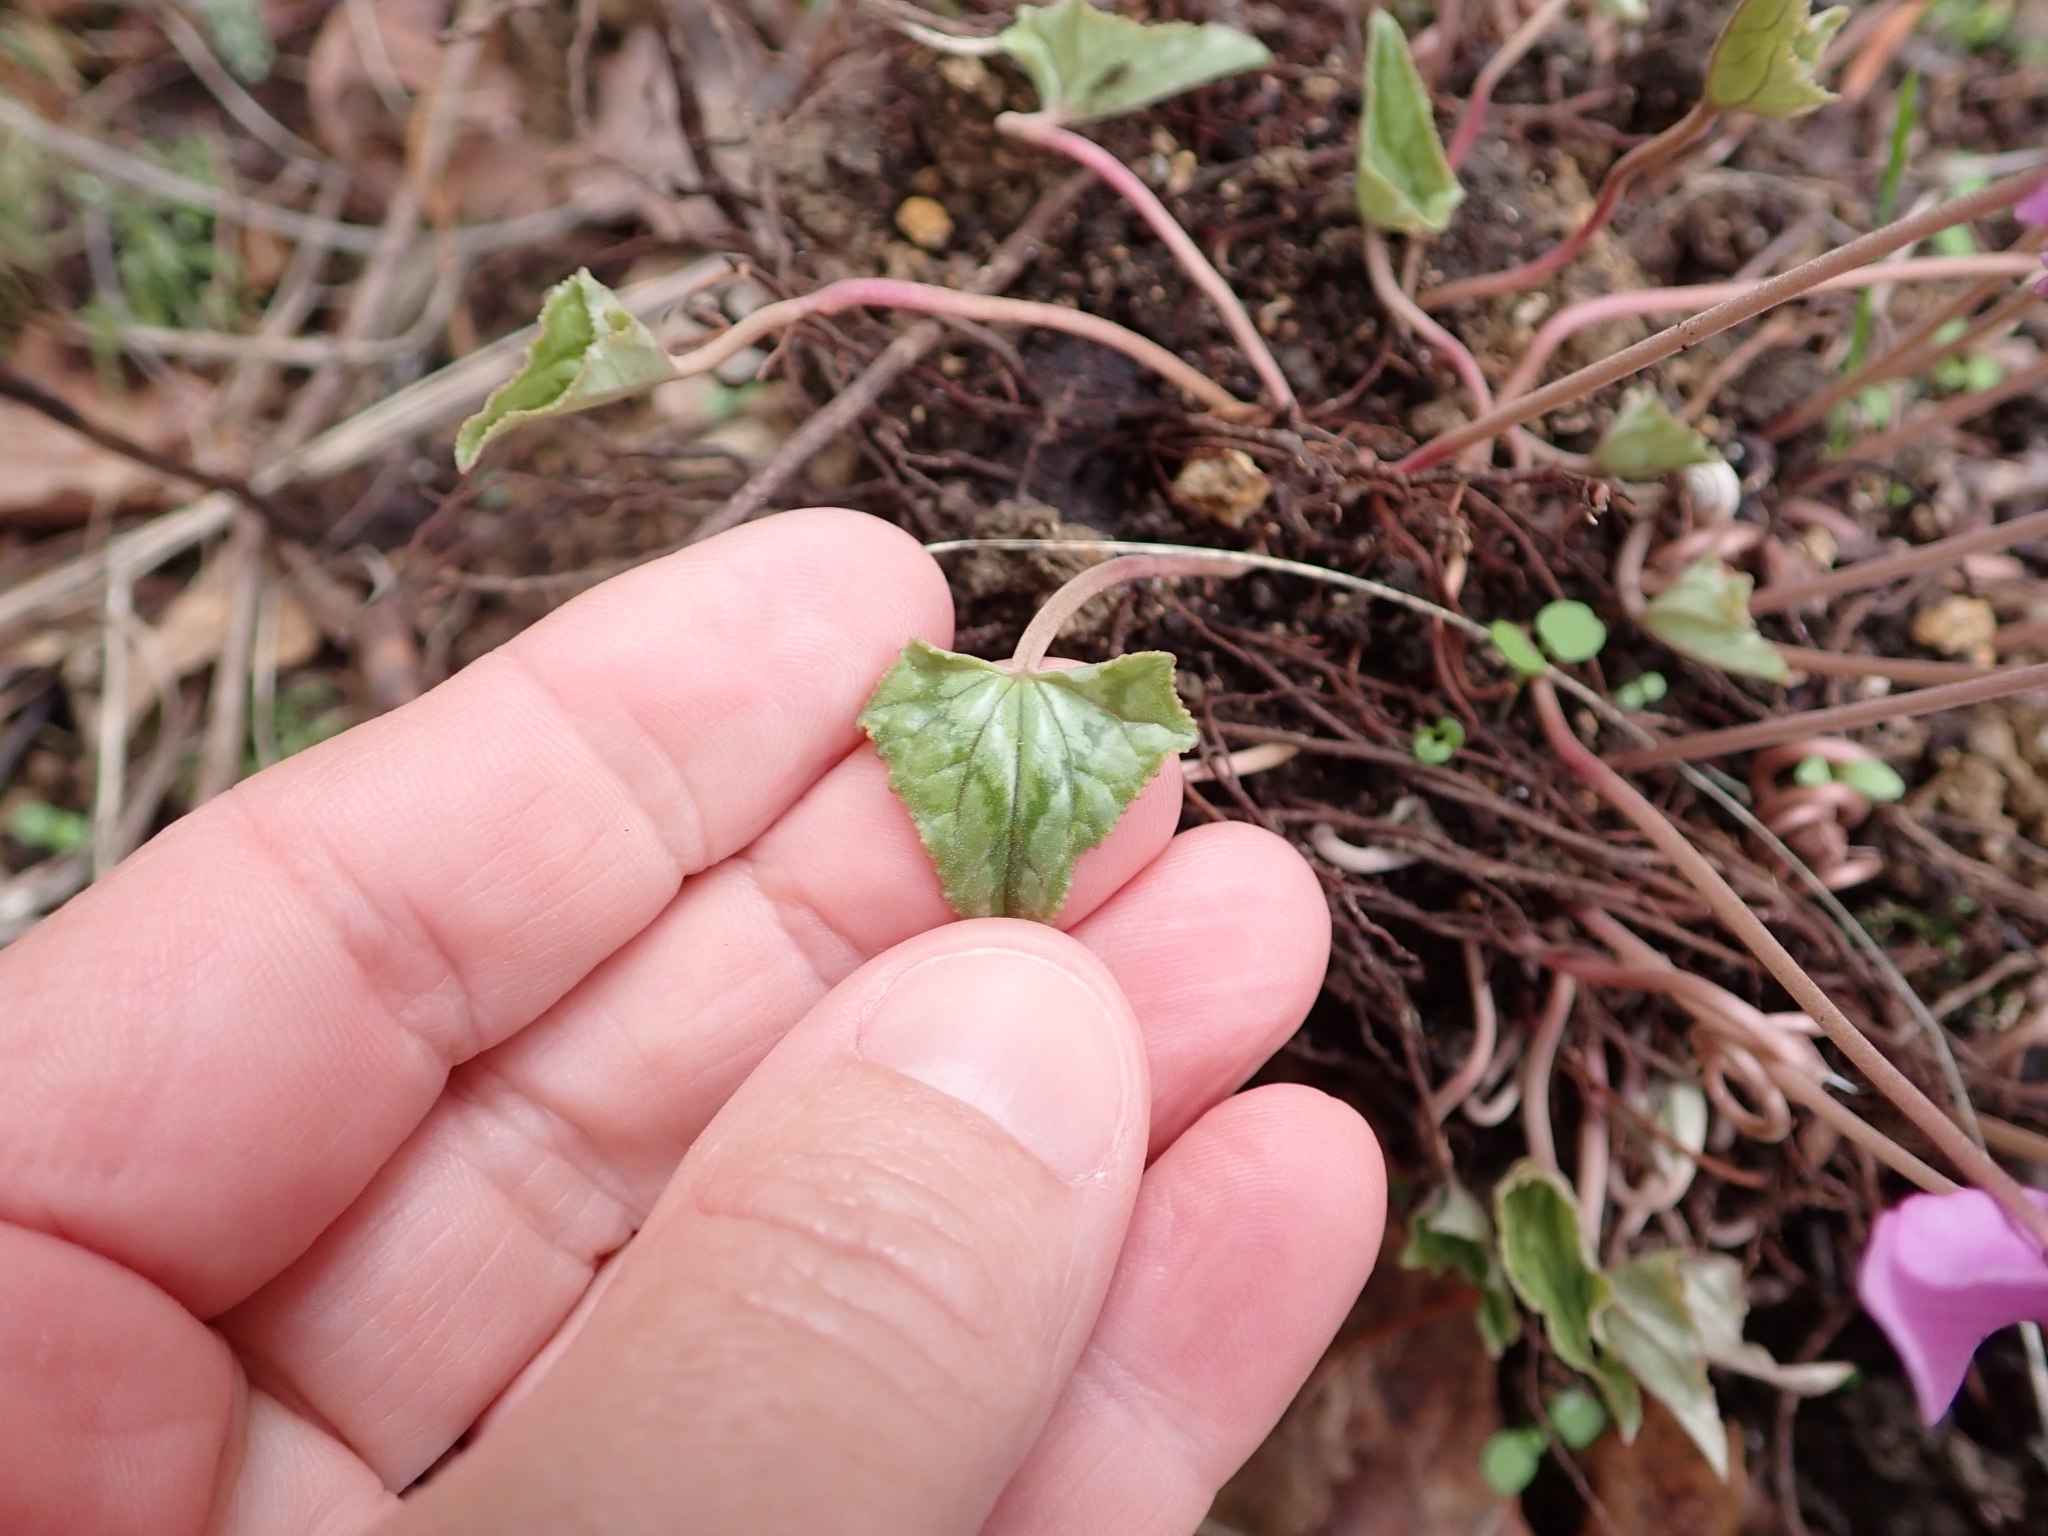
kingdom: Plantae
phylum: Tracheophyta
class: Magnoliopsida
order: Ericales
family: Primulaceae
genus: Cyclamen
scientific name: Cyclamen hederifolium
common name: Sowbread
